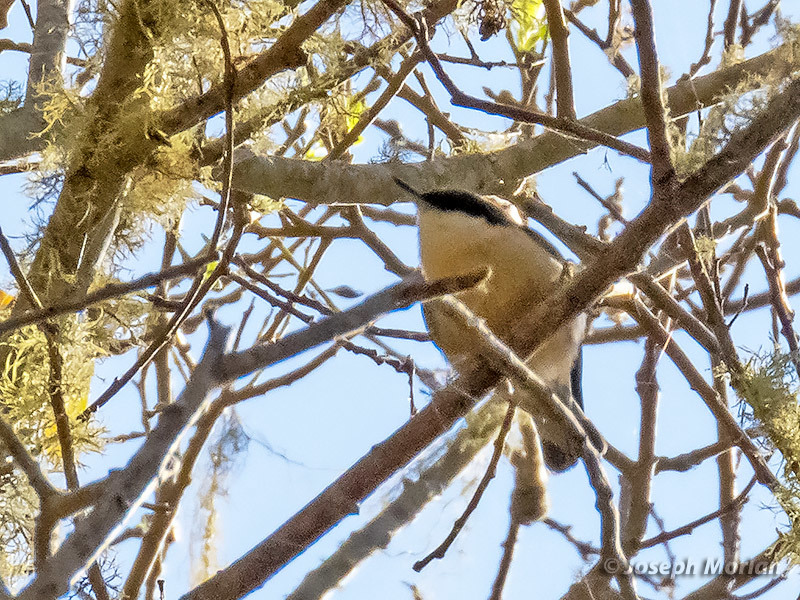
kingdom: Animalia
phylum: Chordata
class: Aves
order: Passeriformes
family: Sittidae
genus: Sitta
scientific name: Sitta pygmaea
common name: Pygmy nuthatch
